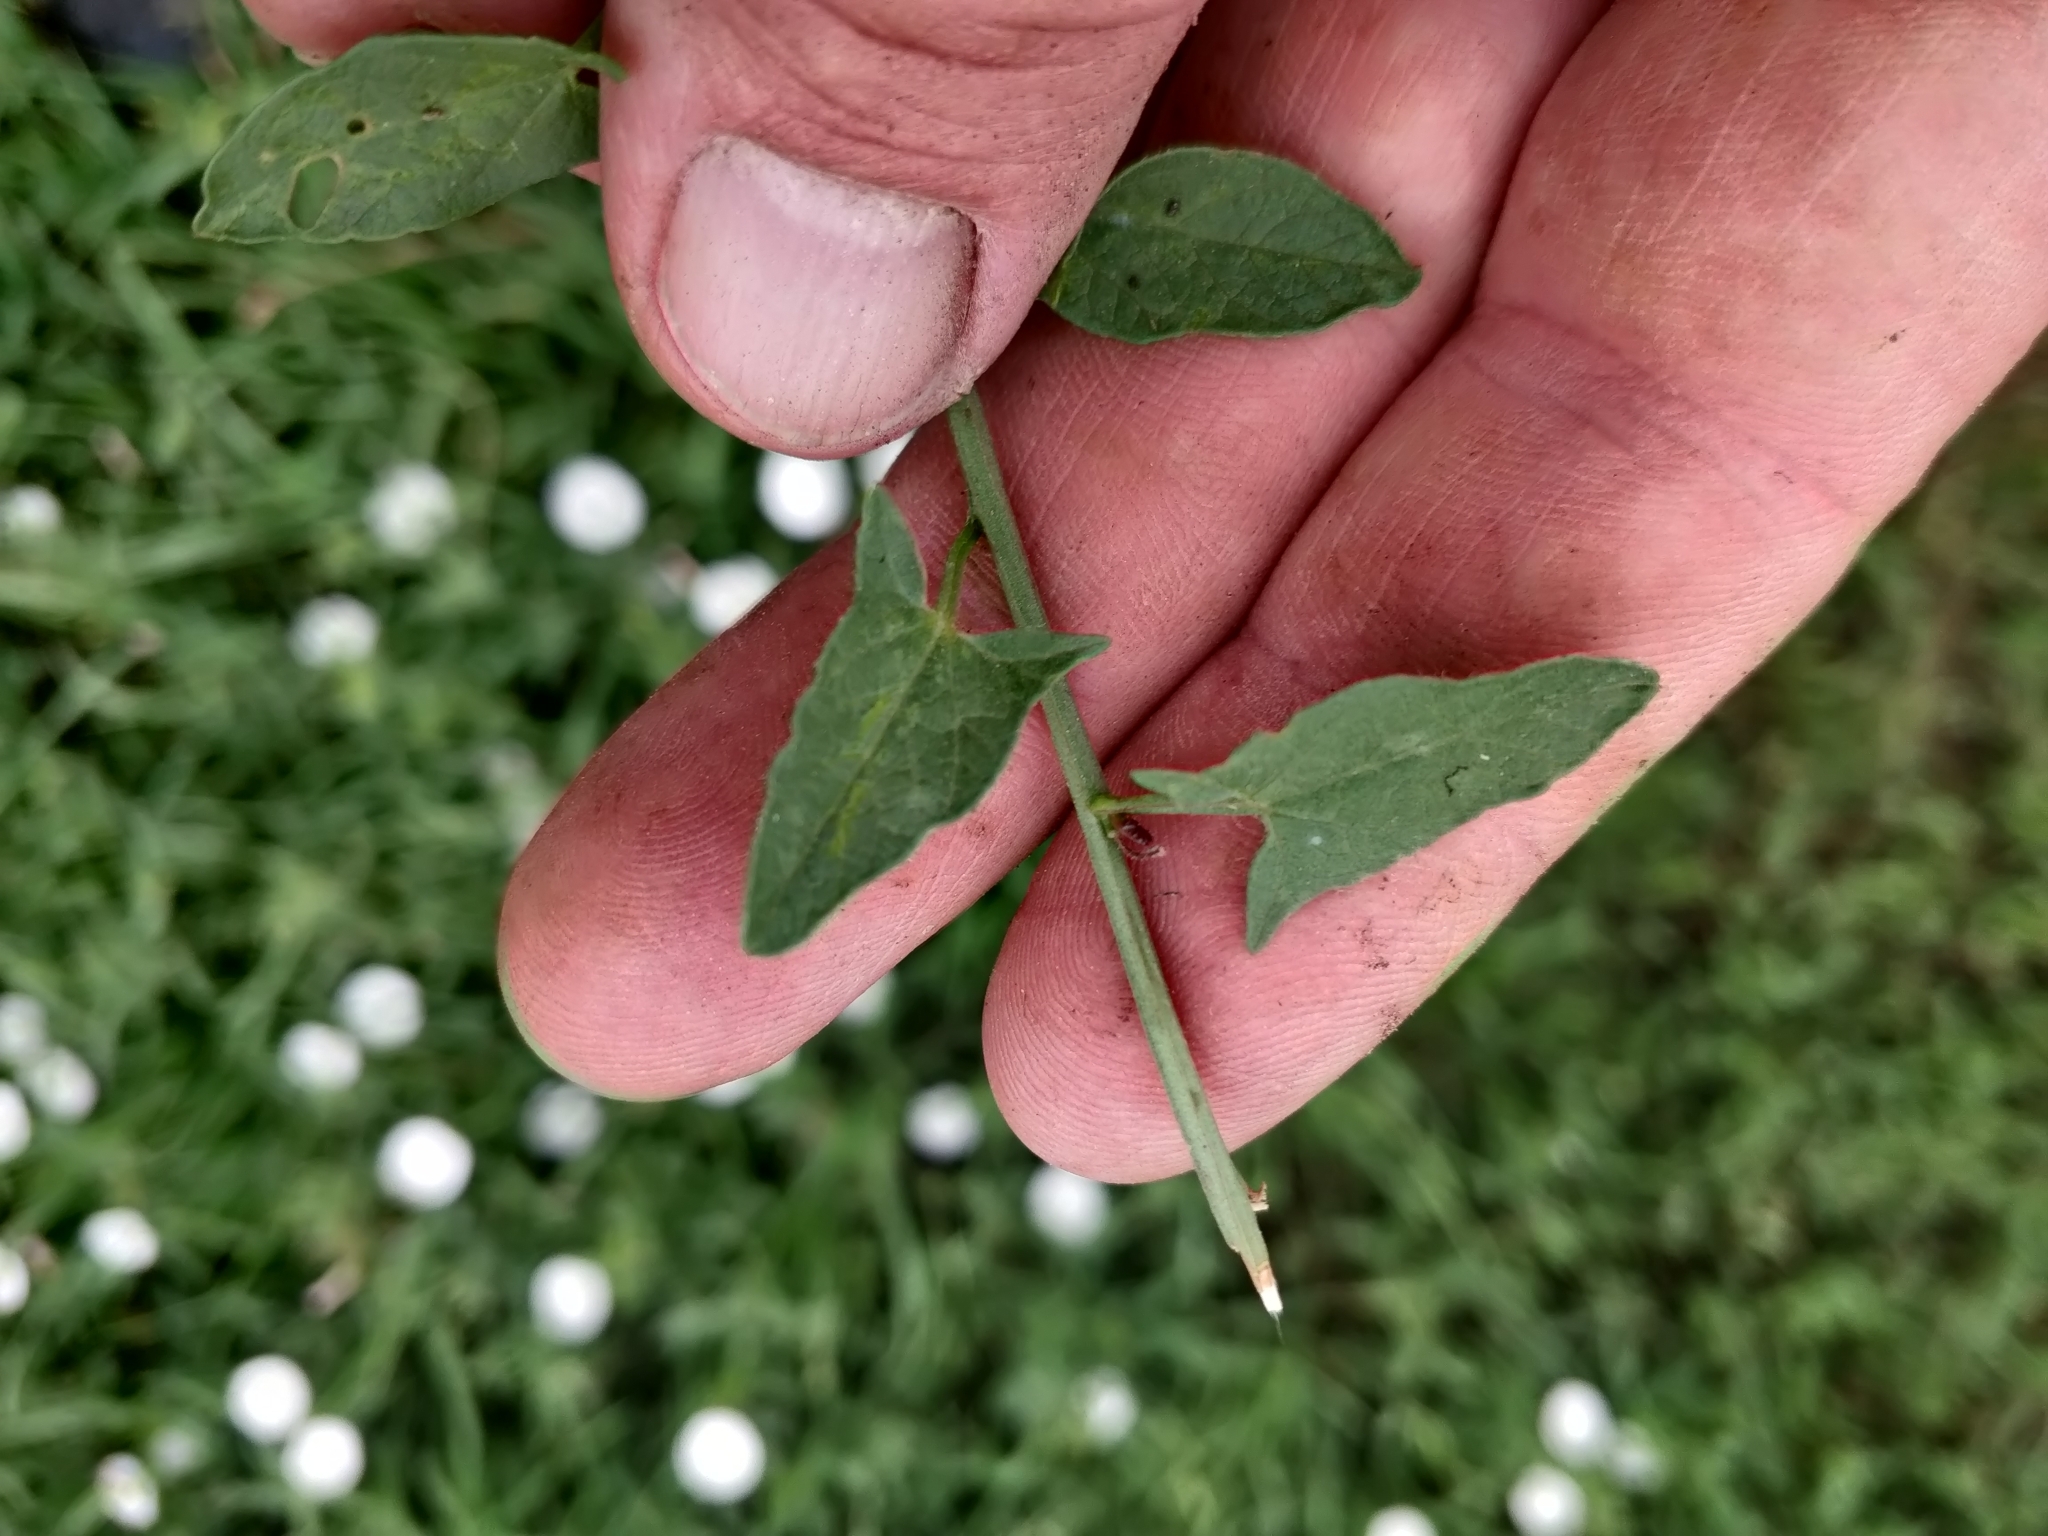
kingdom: Plantae
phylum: Tracheophyta
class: Magnoliopsida
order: Solanales
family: Convolvulaceae
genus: Convolvulus
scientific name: Convolvulus arvensis
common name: Field bindweed
